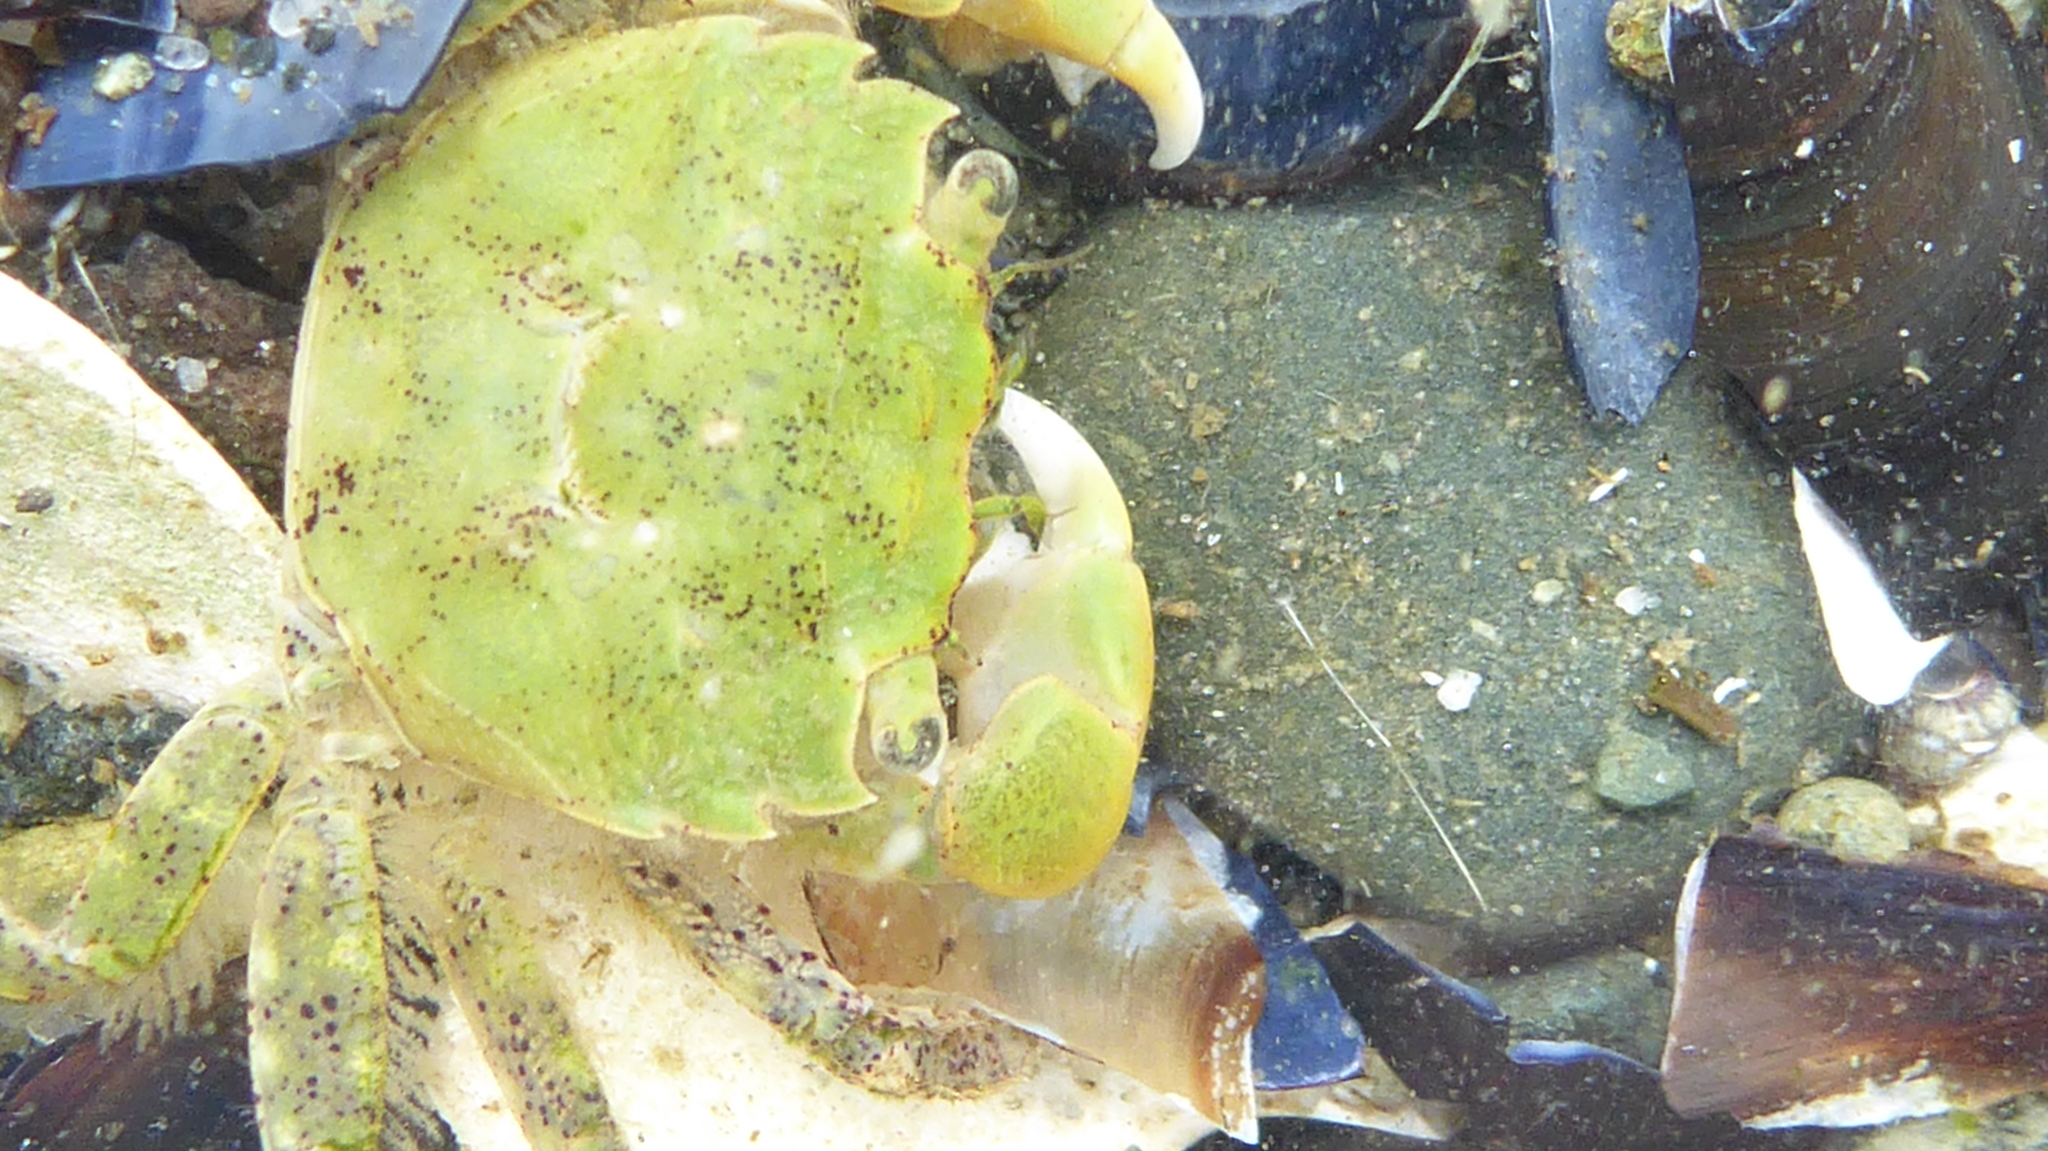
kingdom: Animalia
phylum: Arthropoda
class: Malacostraca
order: Decapoda
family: Varunidae
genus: Hemigrapsus
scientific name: Hemigrapsus oregonensis
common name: Yellow shore crab
